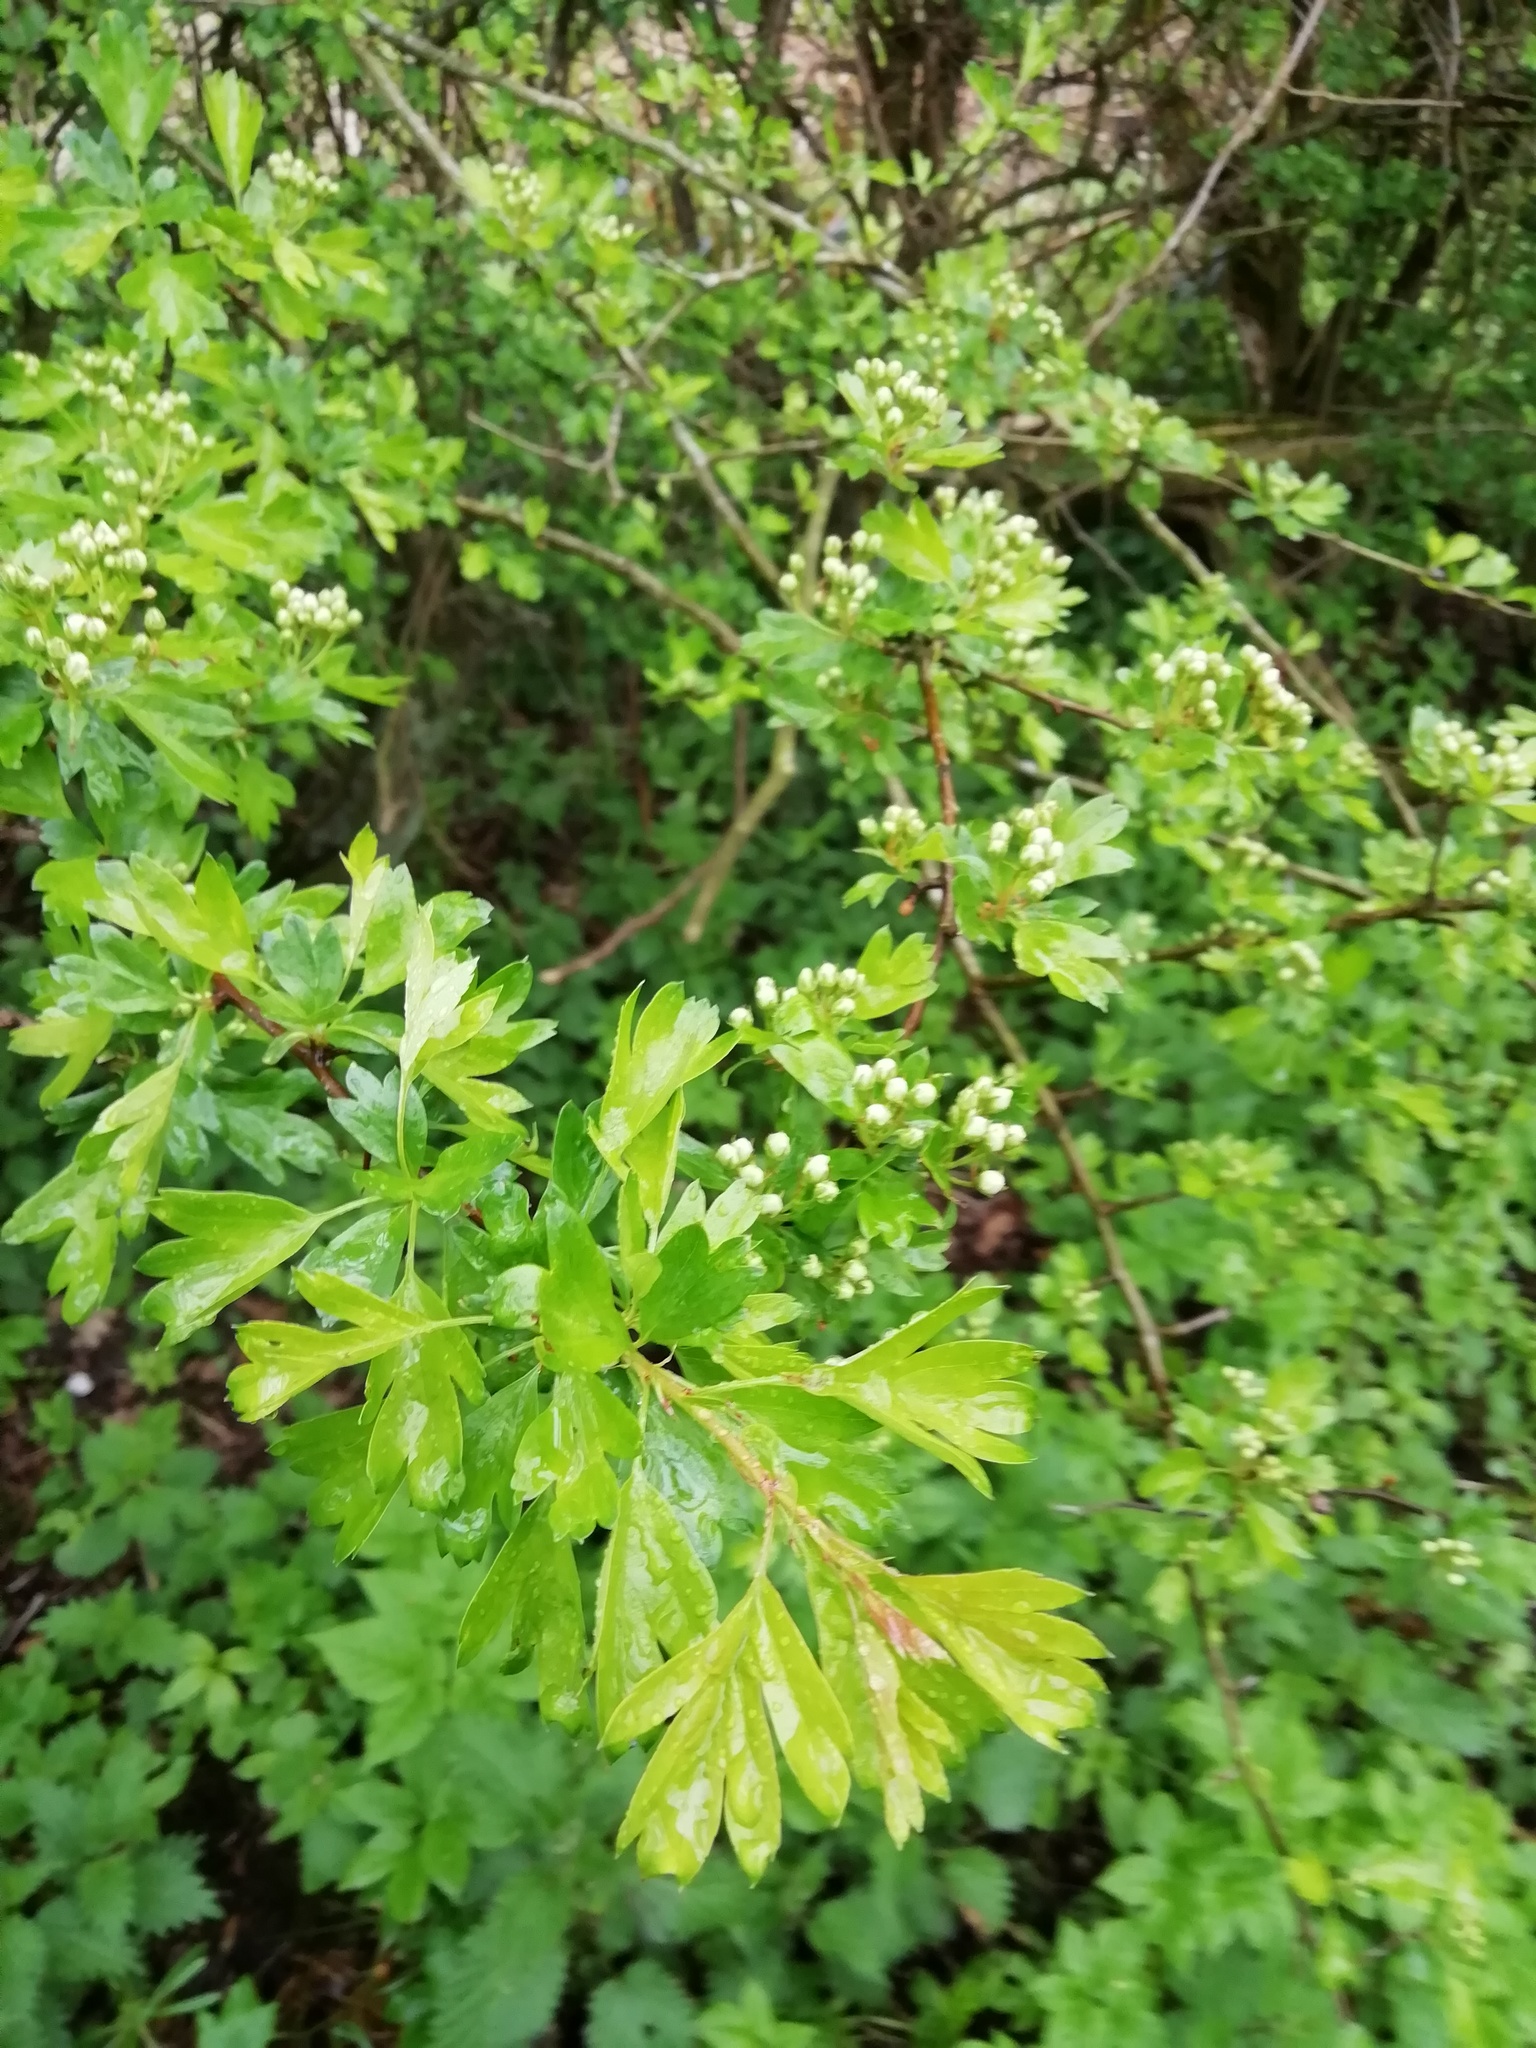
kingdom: Plantae
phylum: Tracheophyta
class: Magnoliopsida
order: Rosales
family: Rosaceae
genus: Crataegus
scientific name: Crataegus monogyna
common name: Hawthorn
